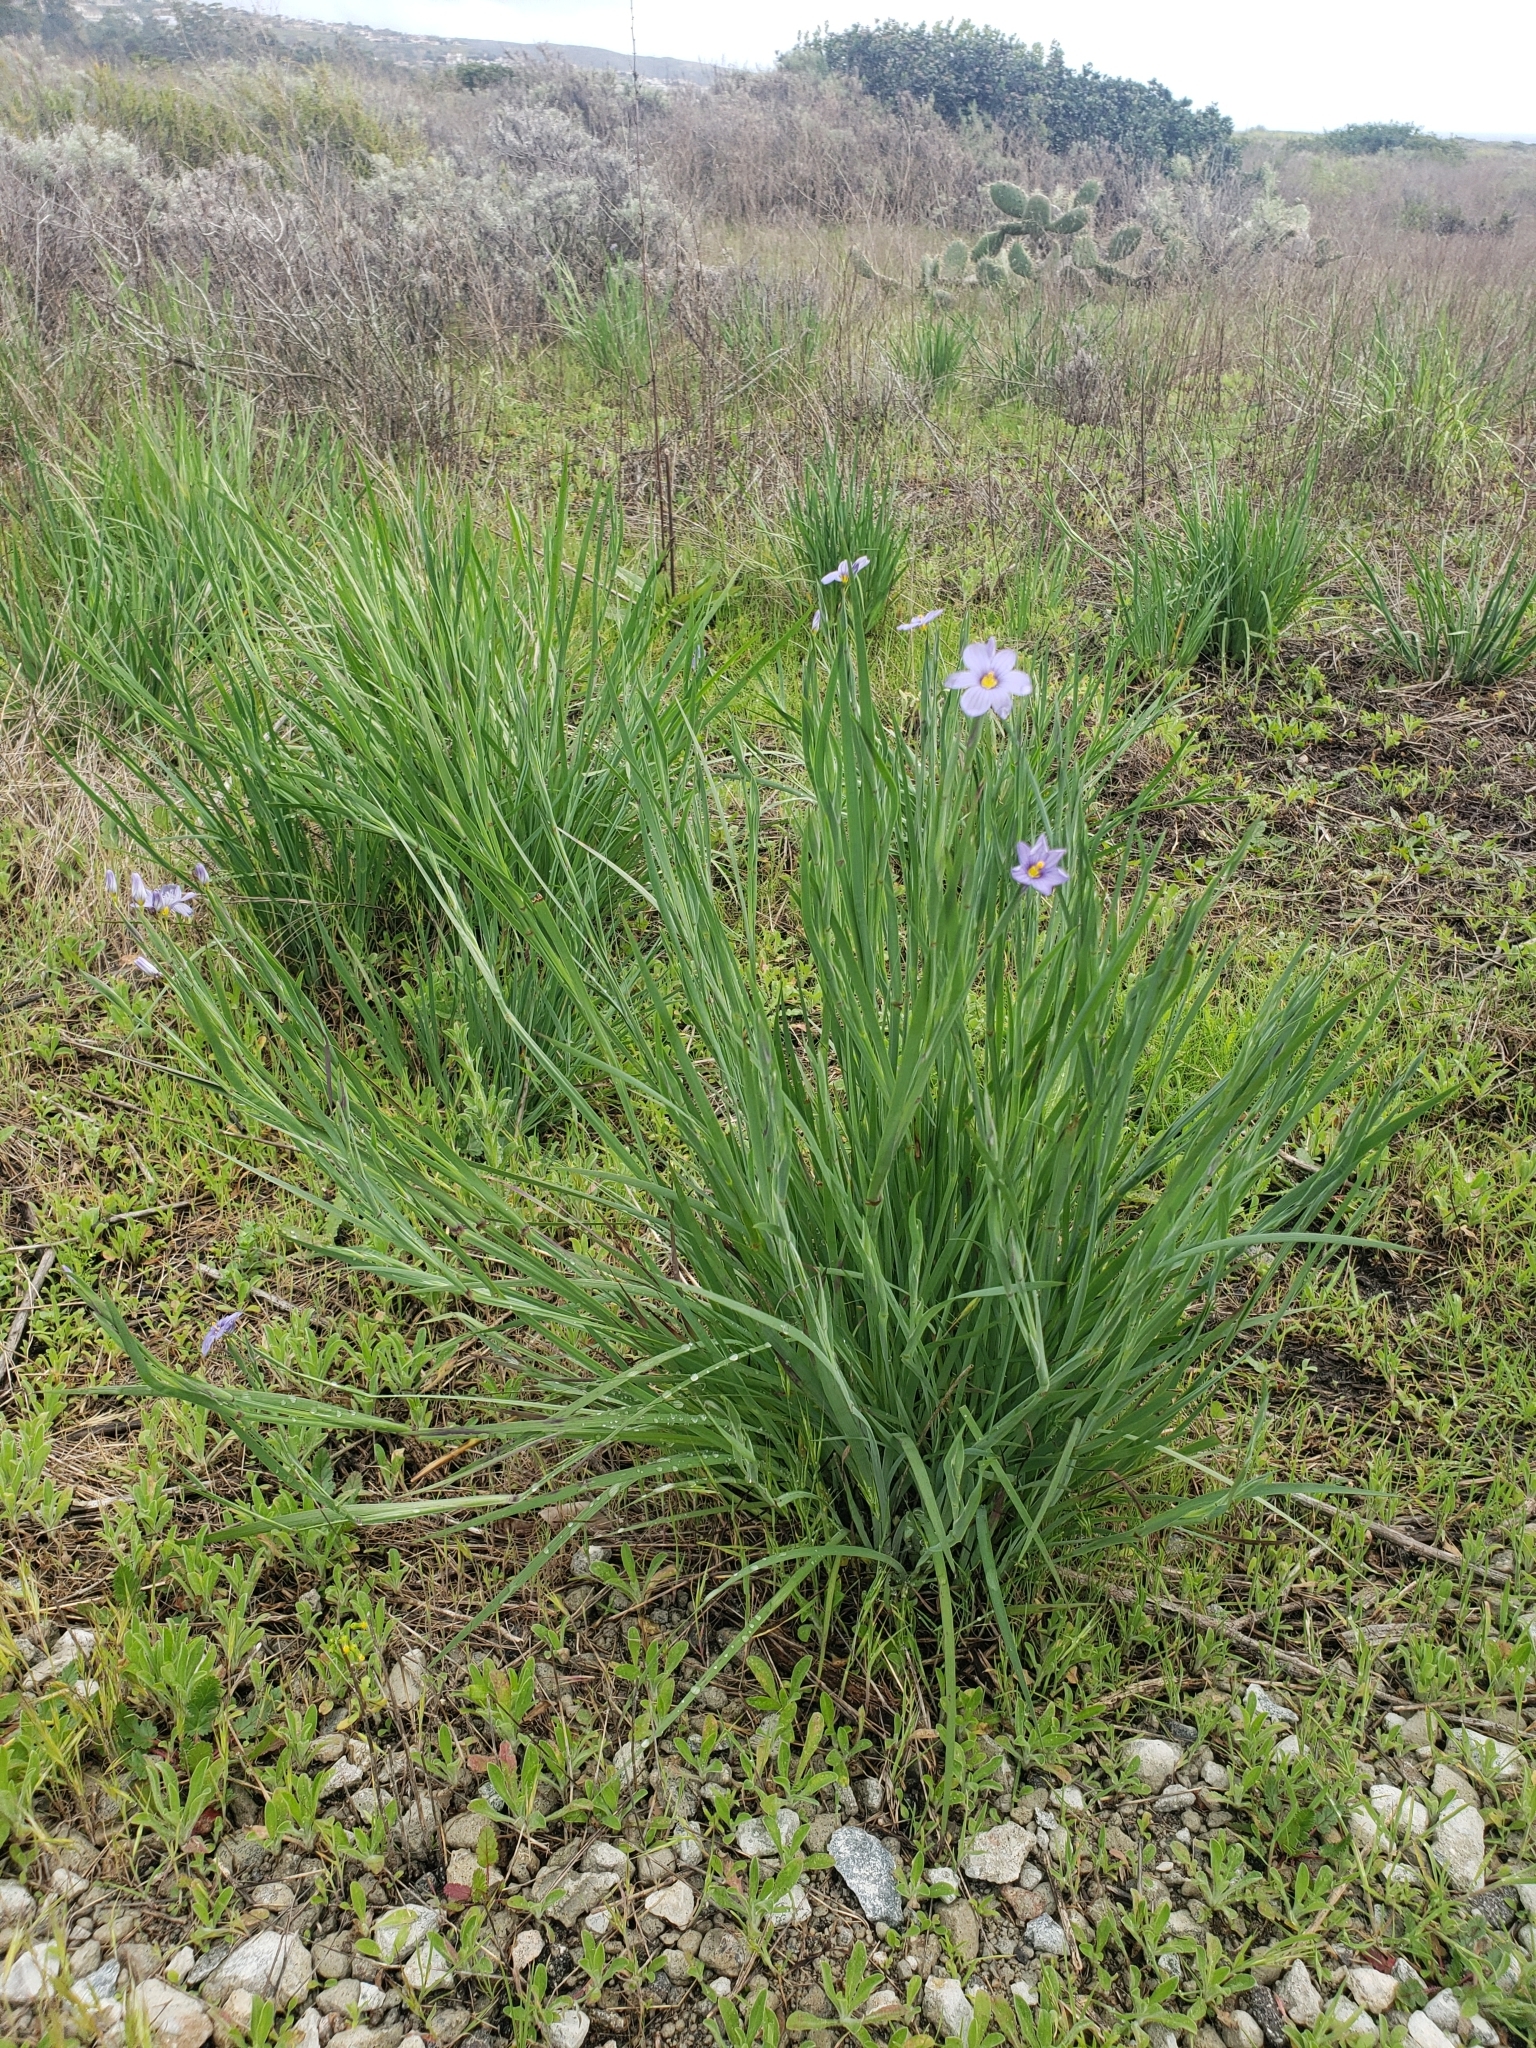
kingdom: Plantae
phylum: Tracheophyta
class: Liliopsida
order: Asparagales
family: Iridaceae
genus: Sisyrinchium
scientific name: Sisyrinchium bellum
